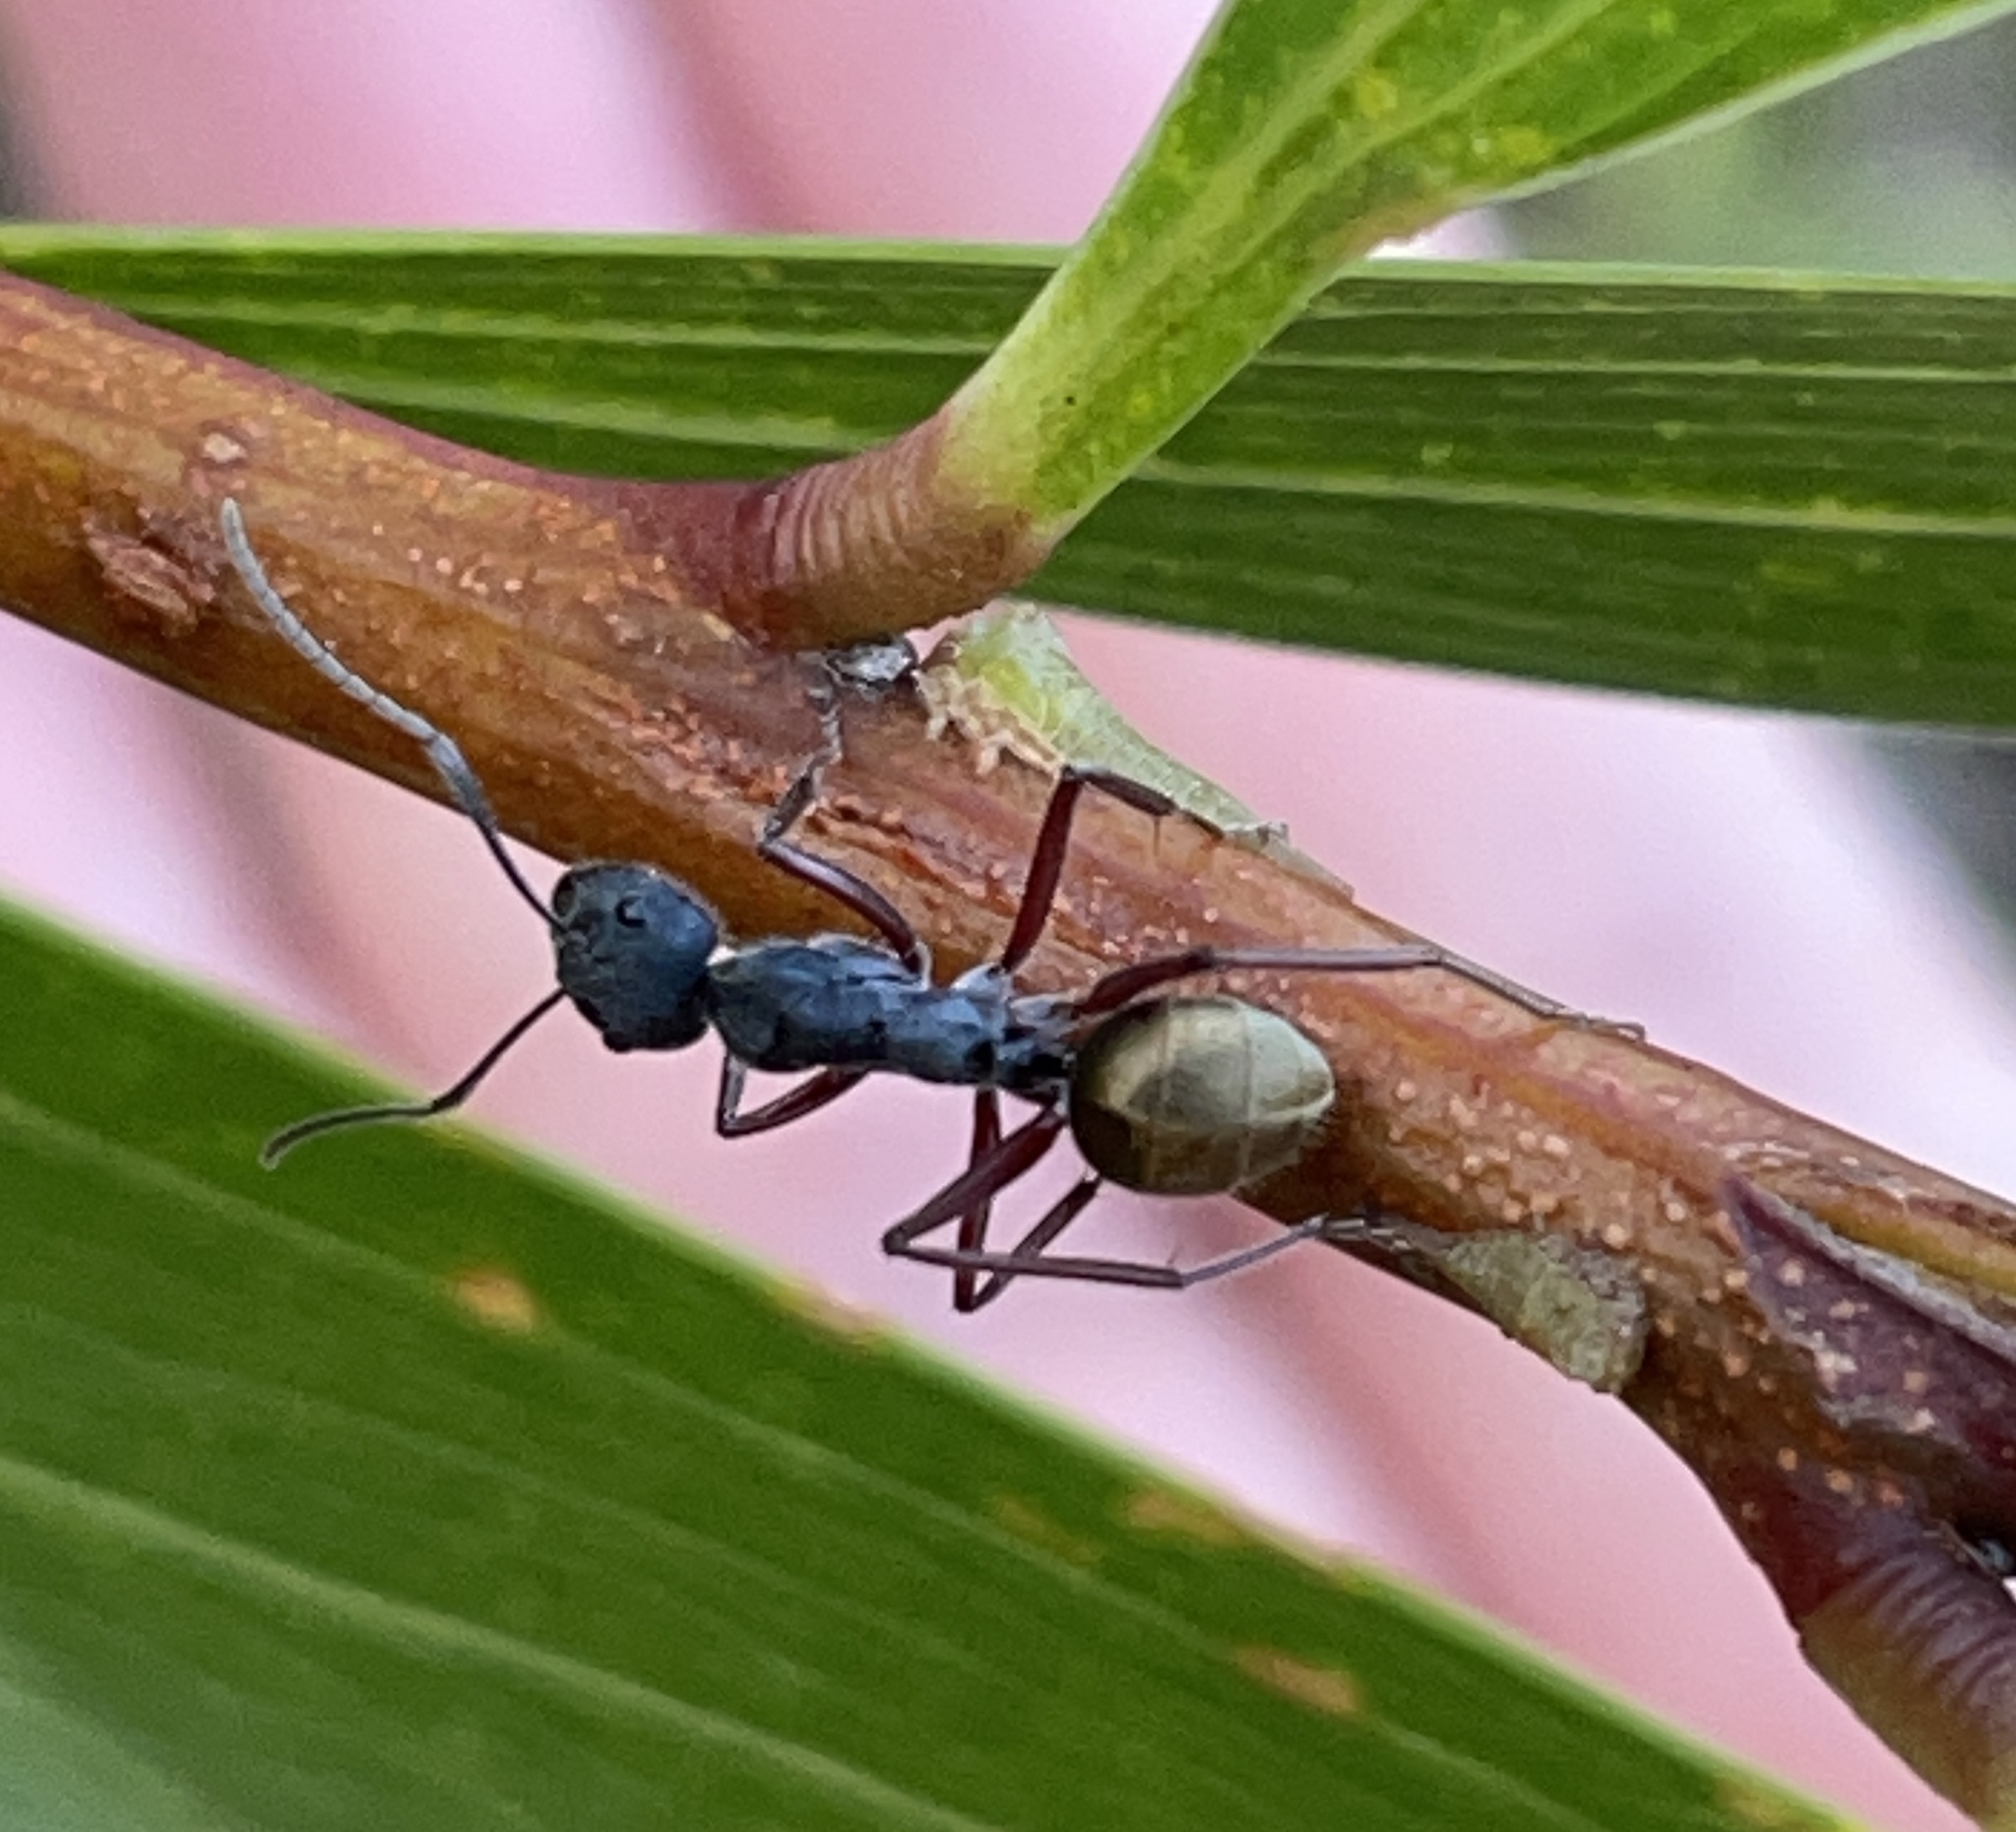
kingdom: Animalia
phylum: Arthropoda
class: Insecta
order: Hymenoptera
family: Formicidae
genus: Camponotus
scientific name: Camponotus suffusus
